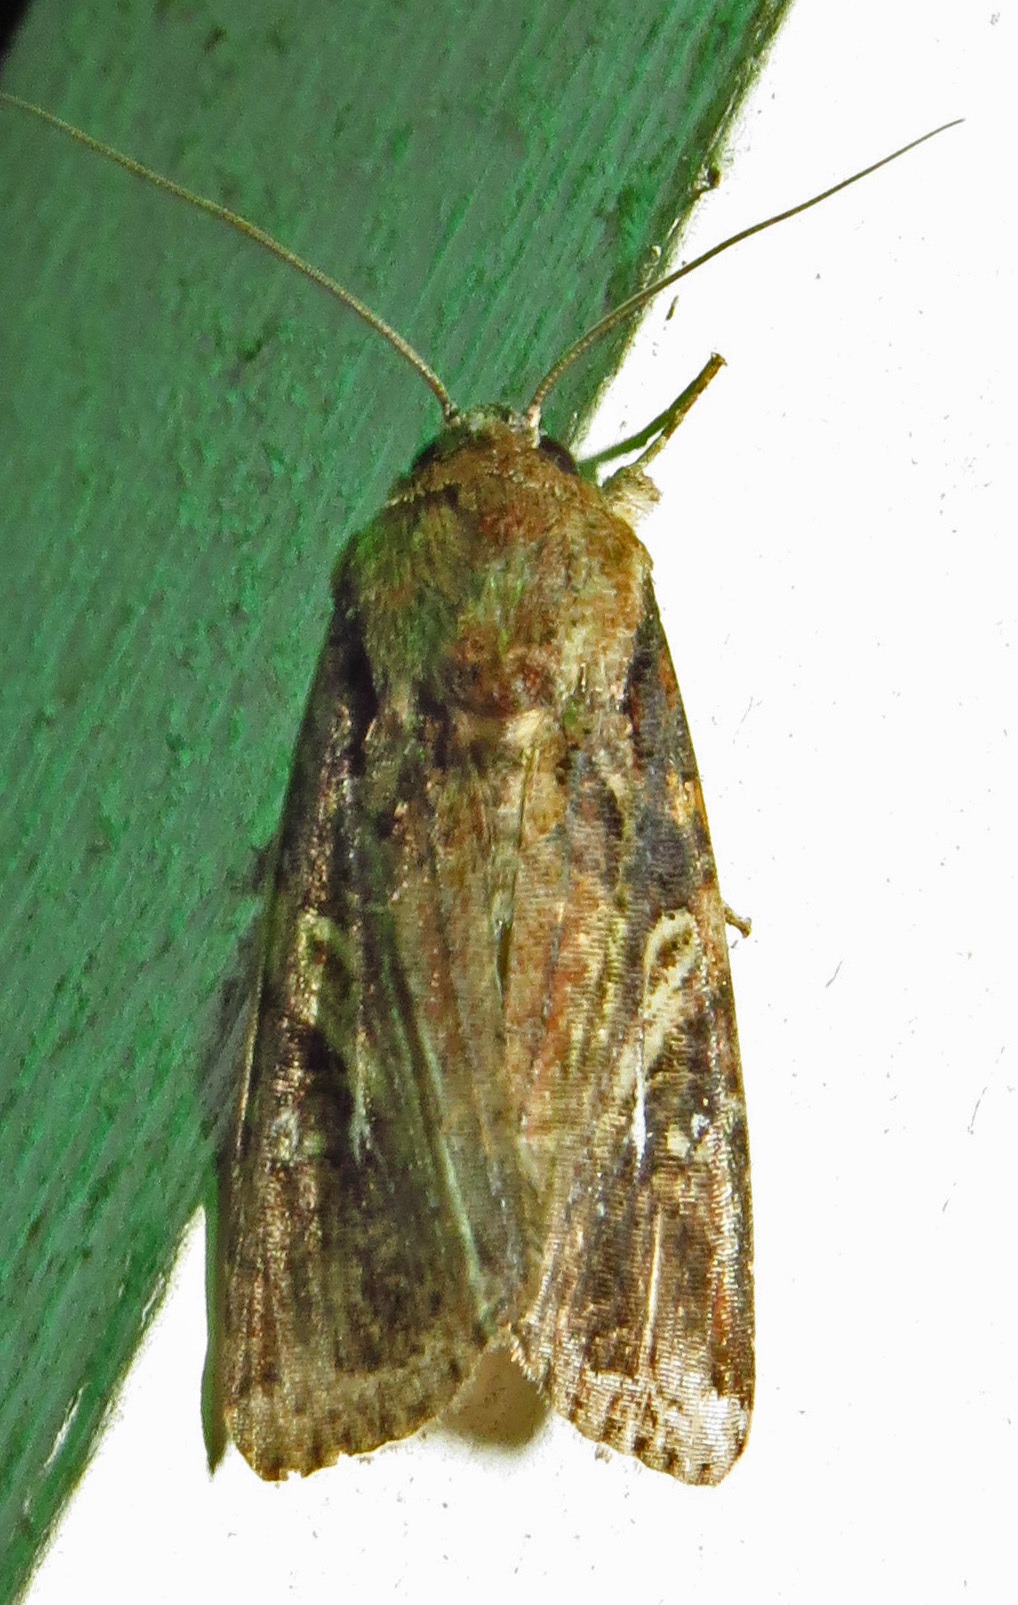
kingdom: Animalia
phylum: Arthropoda
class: Insecta
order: Lepidoptera
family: Noctuidae
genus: Spodoptera
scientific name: Spodoptera frugiperda
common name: Fall armyworm
